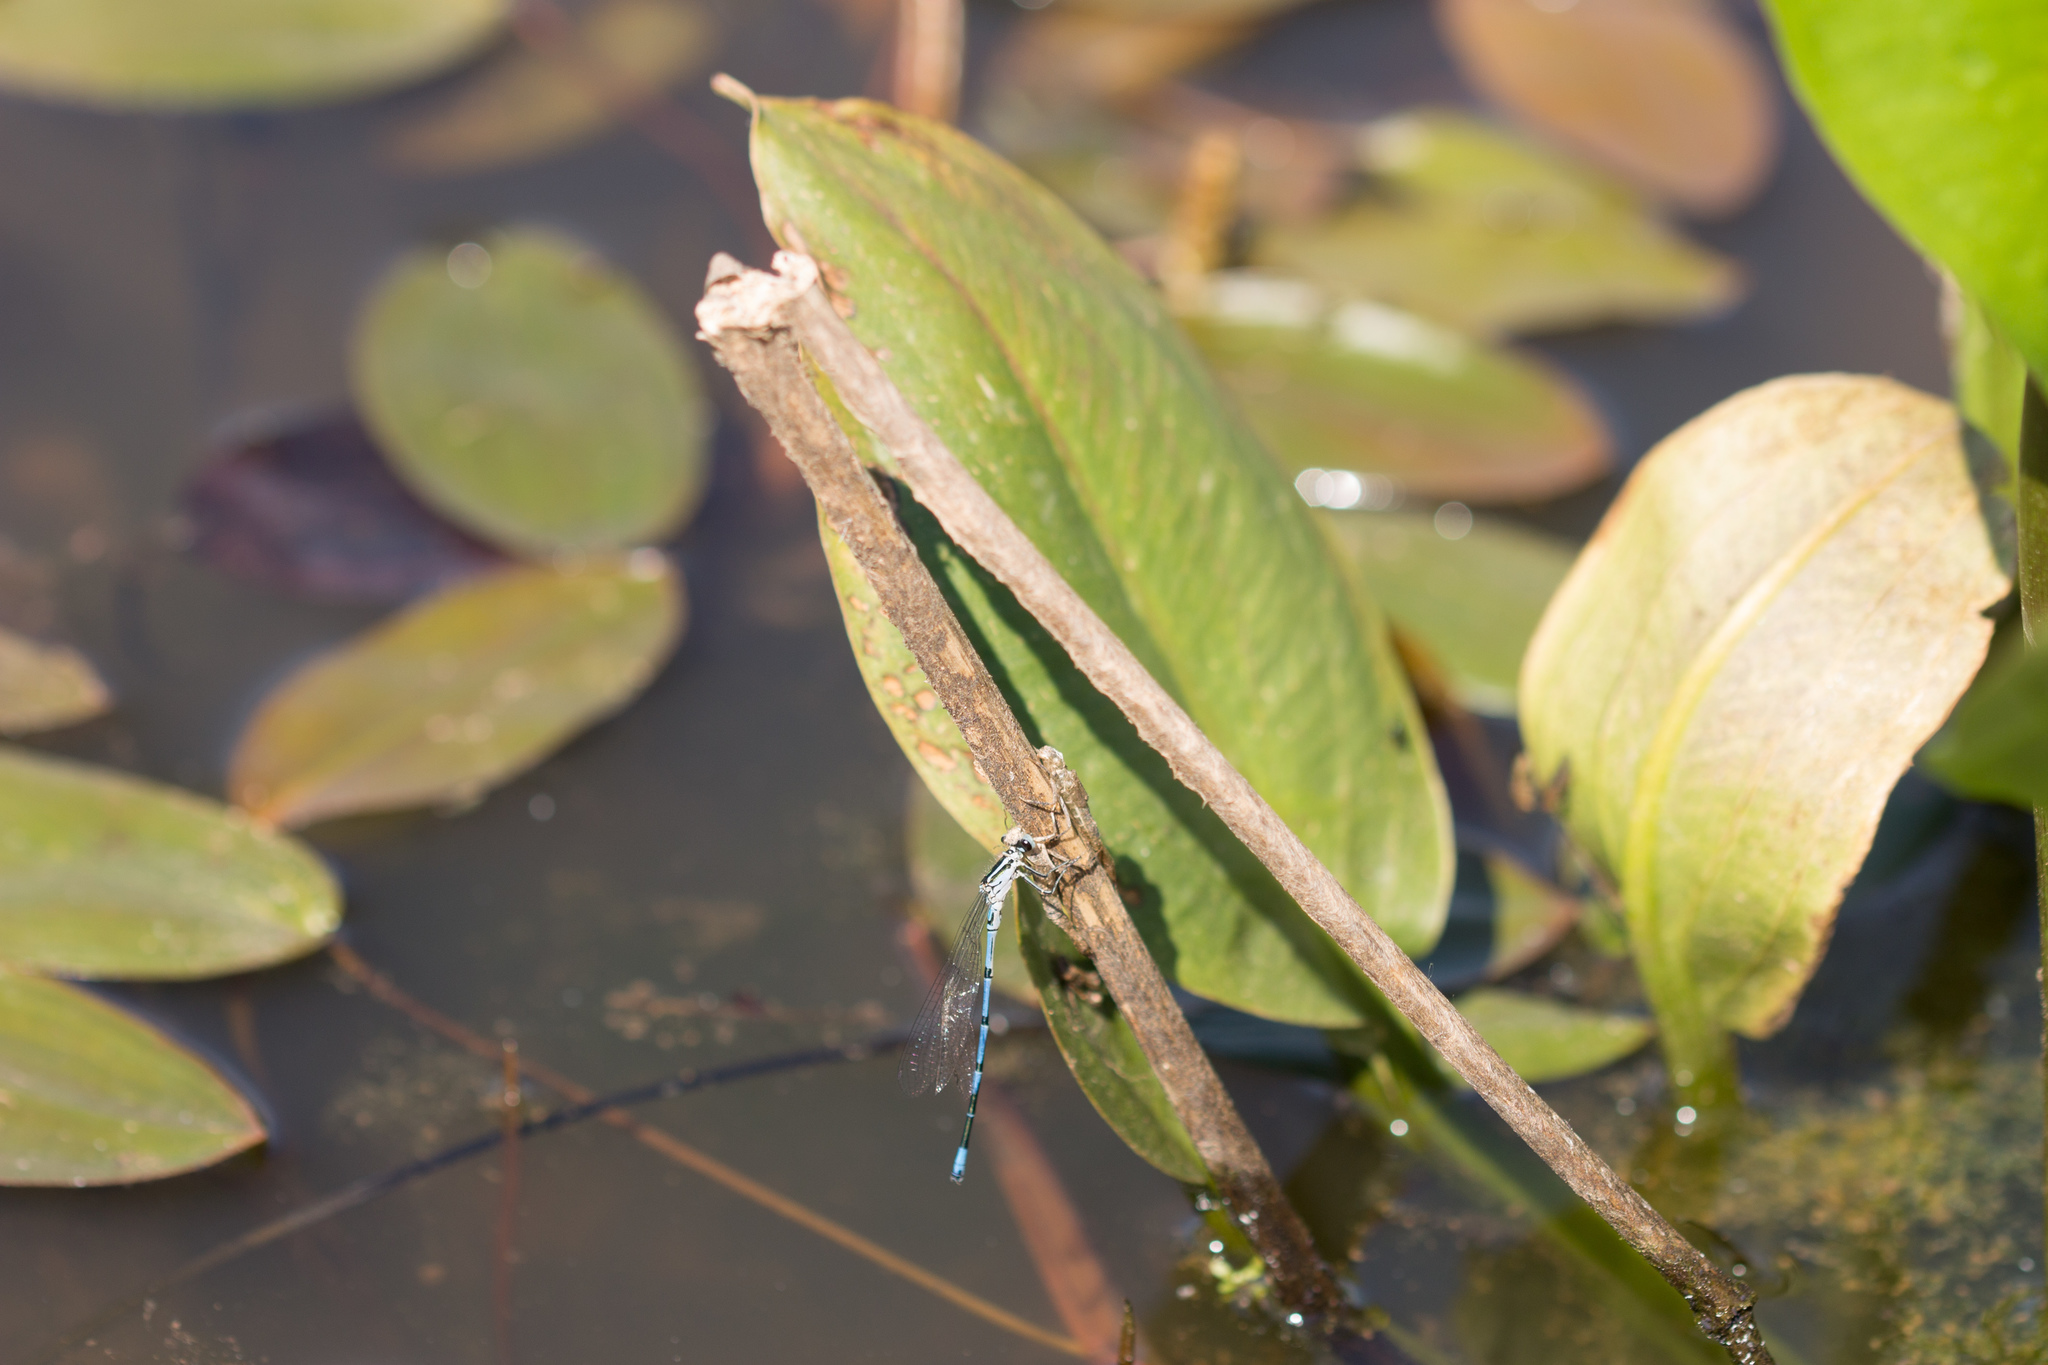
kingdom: Animalia
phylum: Arthropoda
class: Insecta
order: Odonata
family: Coenagrionidae
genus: Coenagrion
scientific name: Coenagrion puella
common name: Azure damselfly
